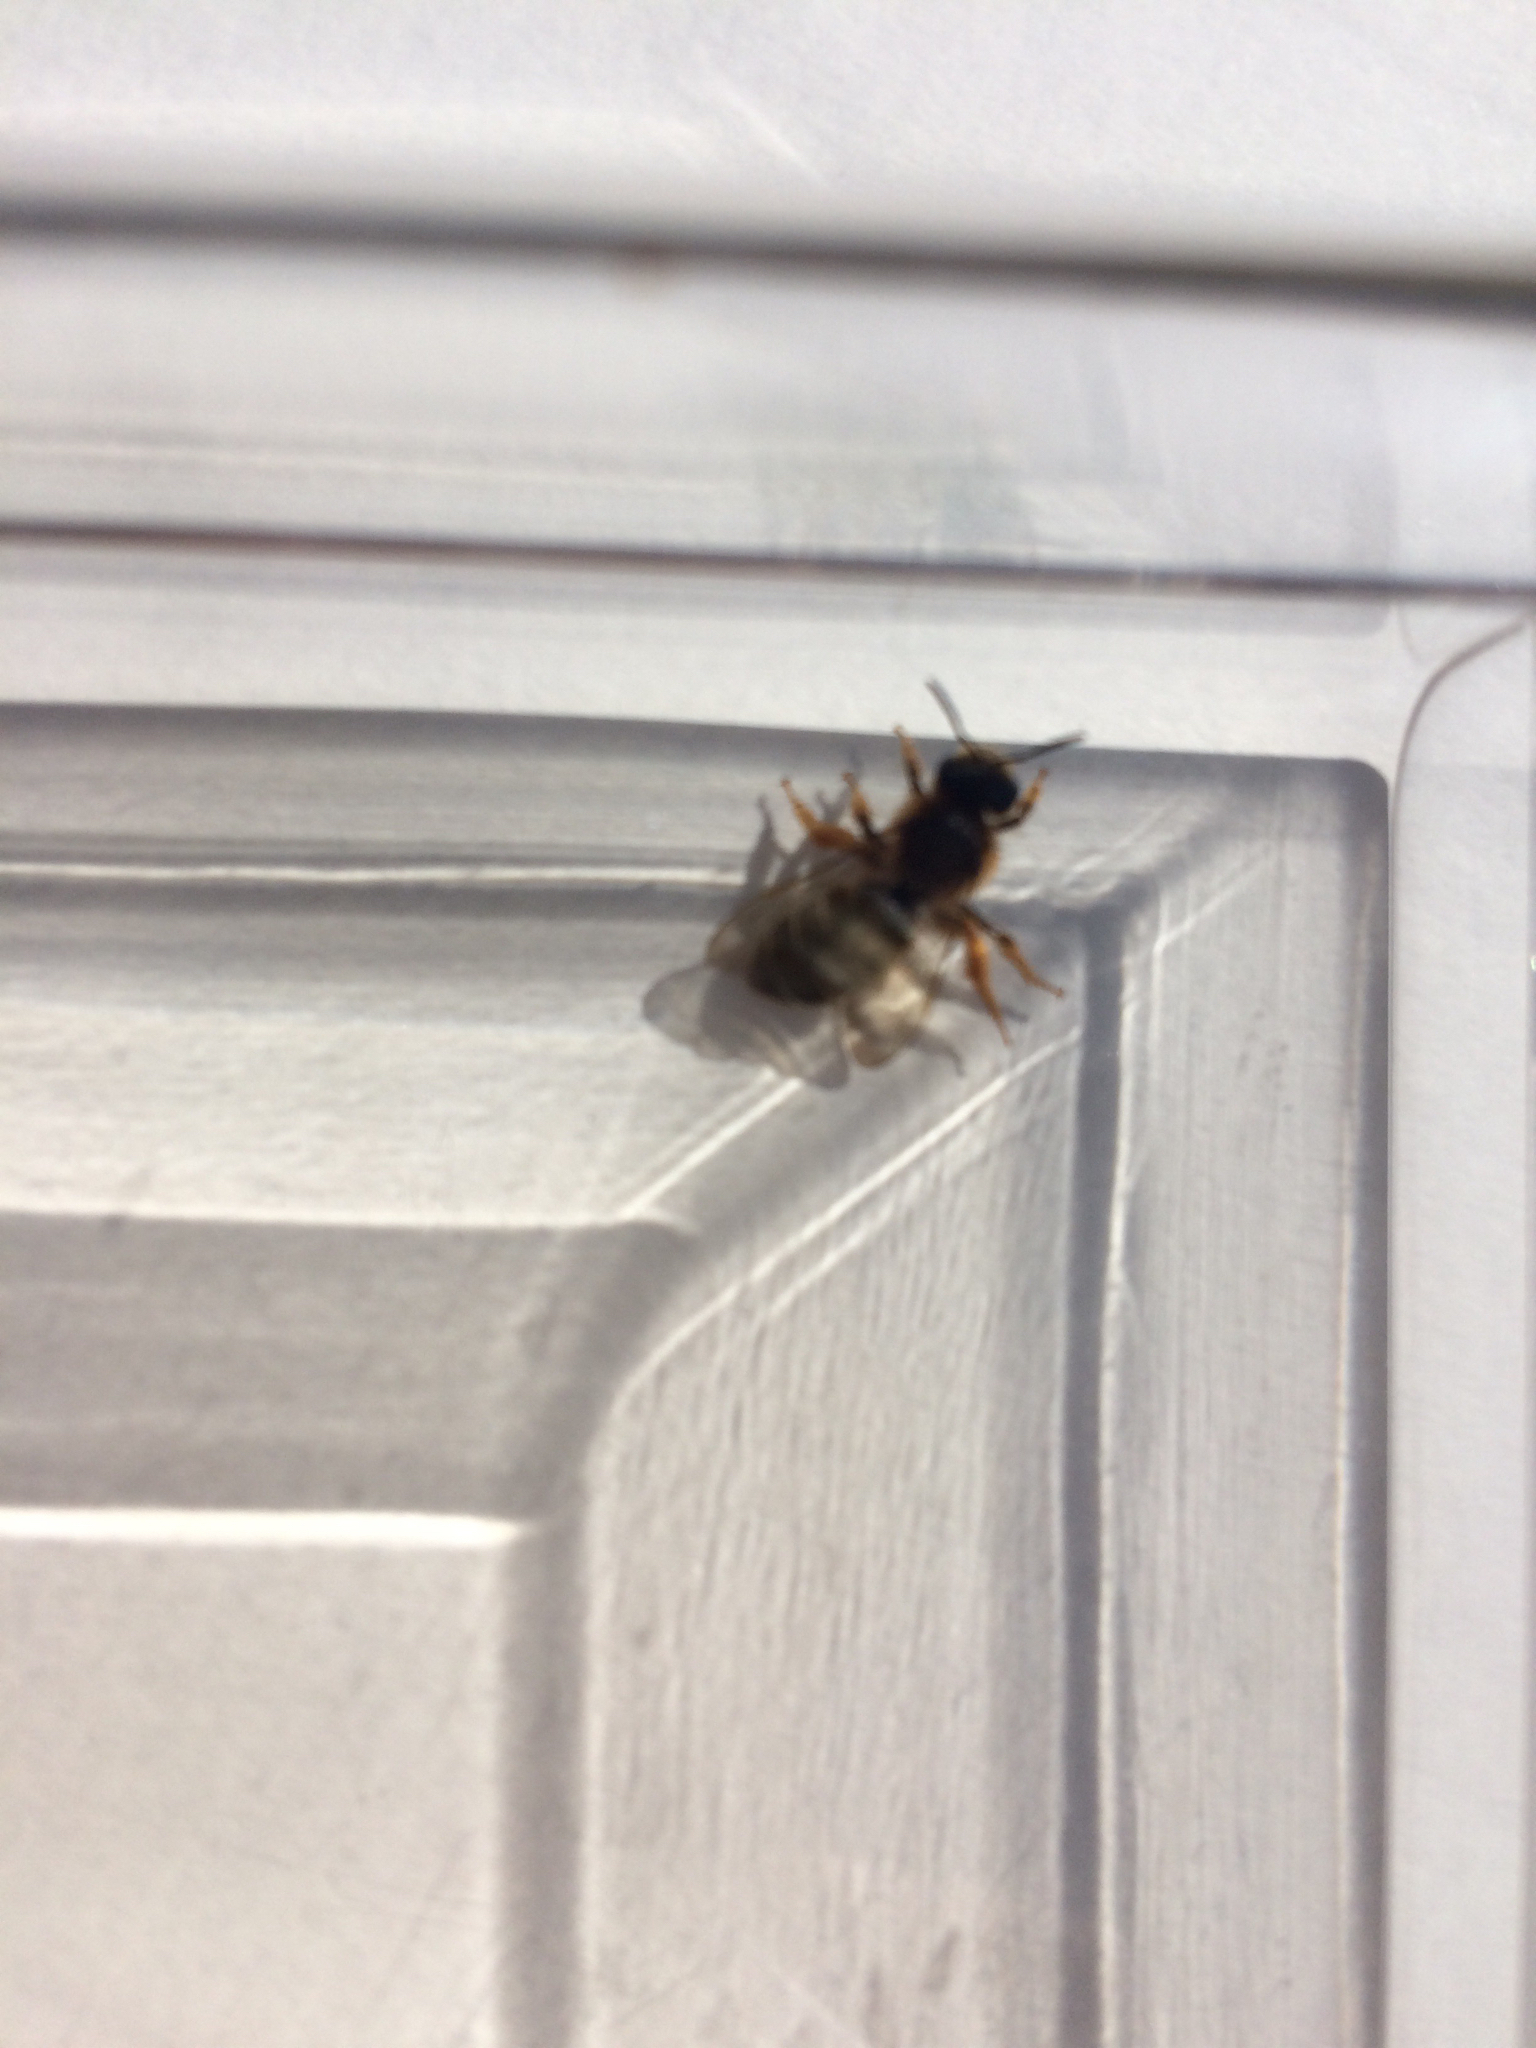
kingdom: Animalia
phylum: Arthropoda
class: Insecta
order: Hymenoptera
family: Halictidae
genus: Halictus
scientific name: Halictus rubicundus
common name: Orange-legged furrow bee
